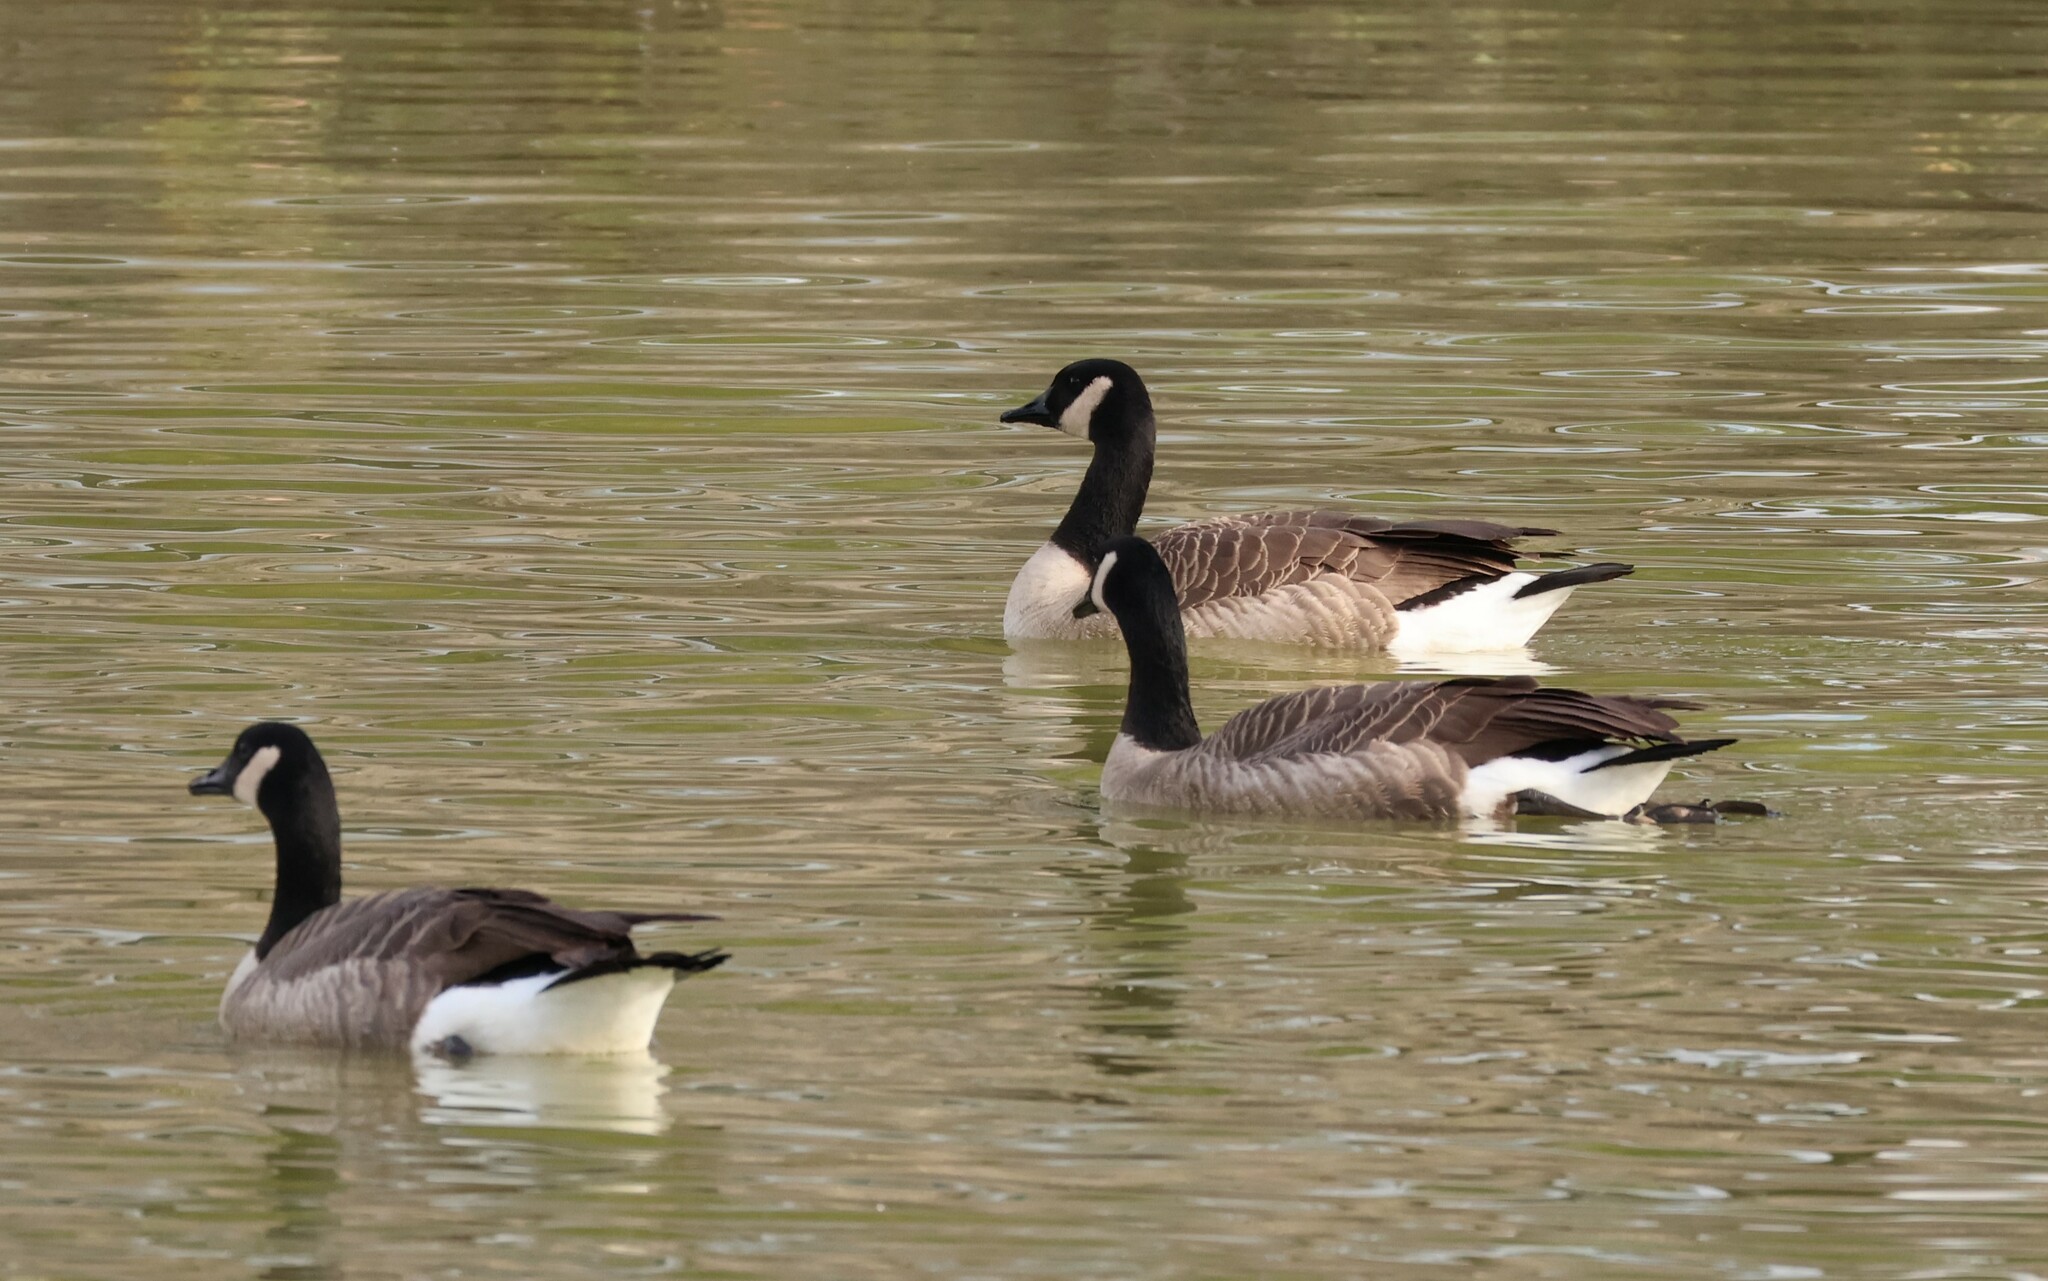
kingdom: Animalia
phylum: Chordata
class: Aves
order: Anseriformes
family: Anatidae
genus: Branta
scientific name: Branta canadensis
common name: Canada goose
